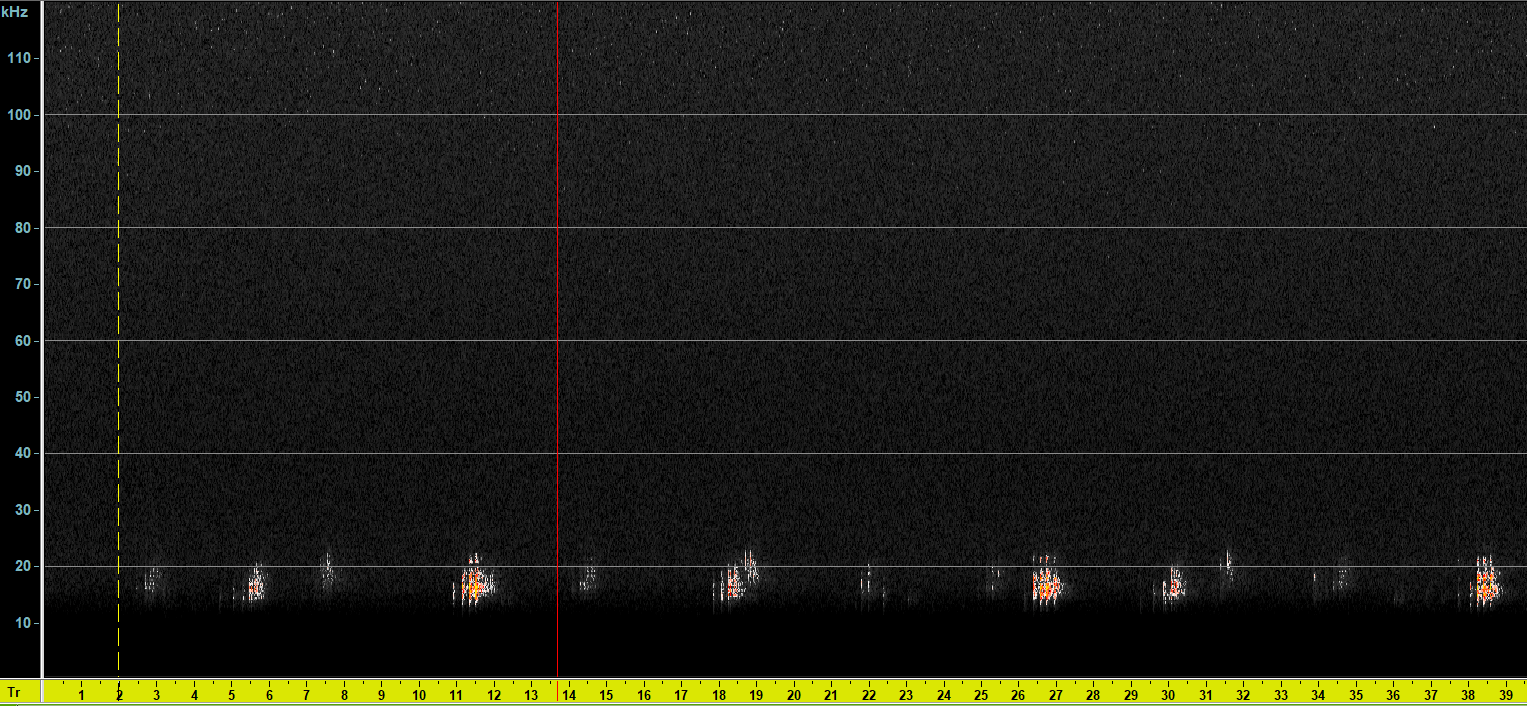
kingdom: Animalia
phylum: Arthropoda
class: Insecta
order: Orthoptera
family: Tettigoniidae
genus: Phaneroptera
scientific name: Phaneroptera nana
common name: Southern sickle bush-cricket
